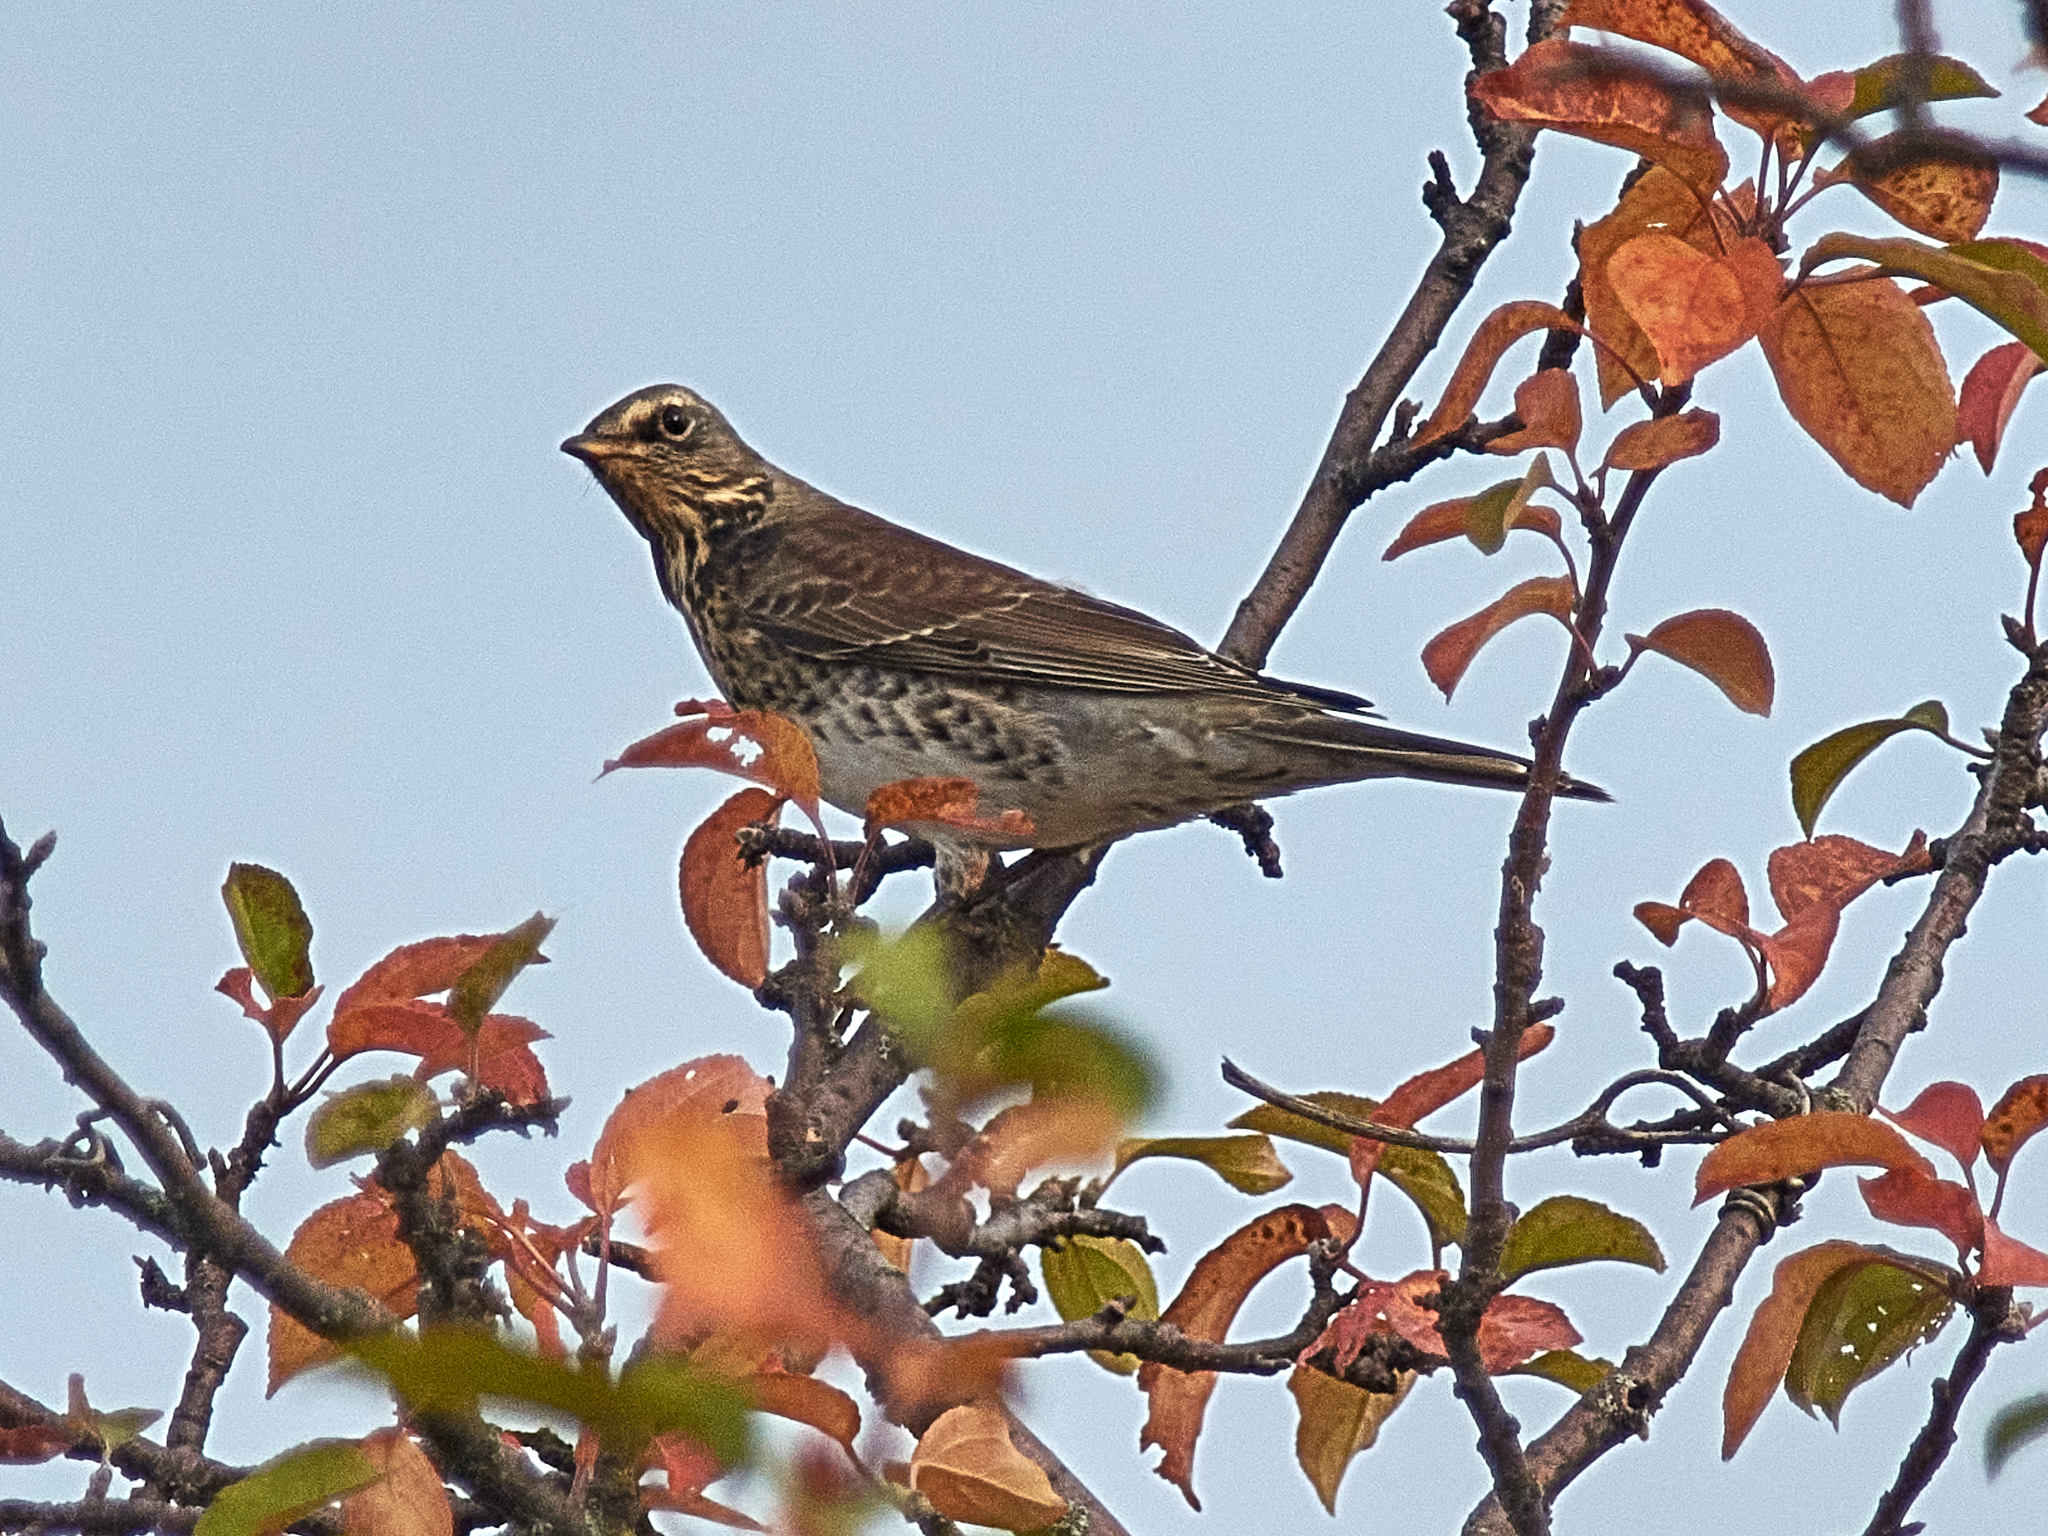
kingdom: Animalia
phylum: Chordata
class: Aves
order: Passeriformes
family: Turdidae
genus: Turdus
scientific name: Turdus pilaris
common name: Fieldfare
